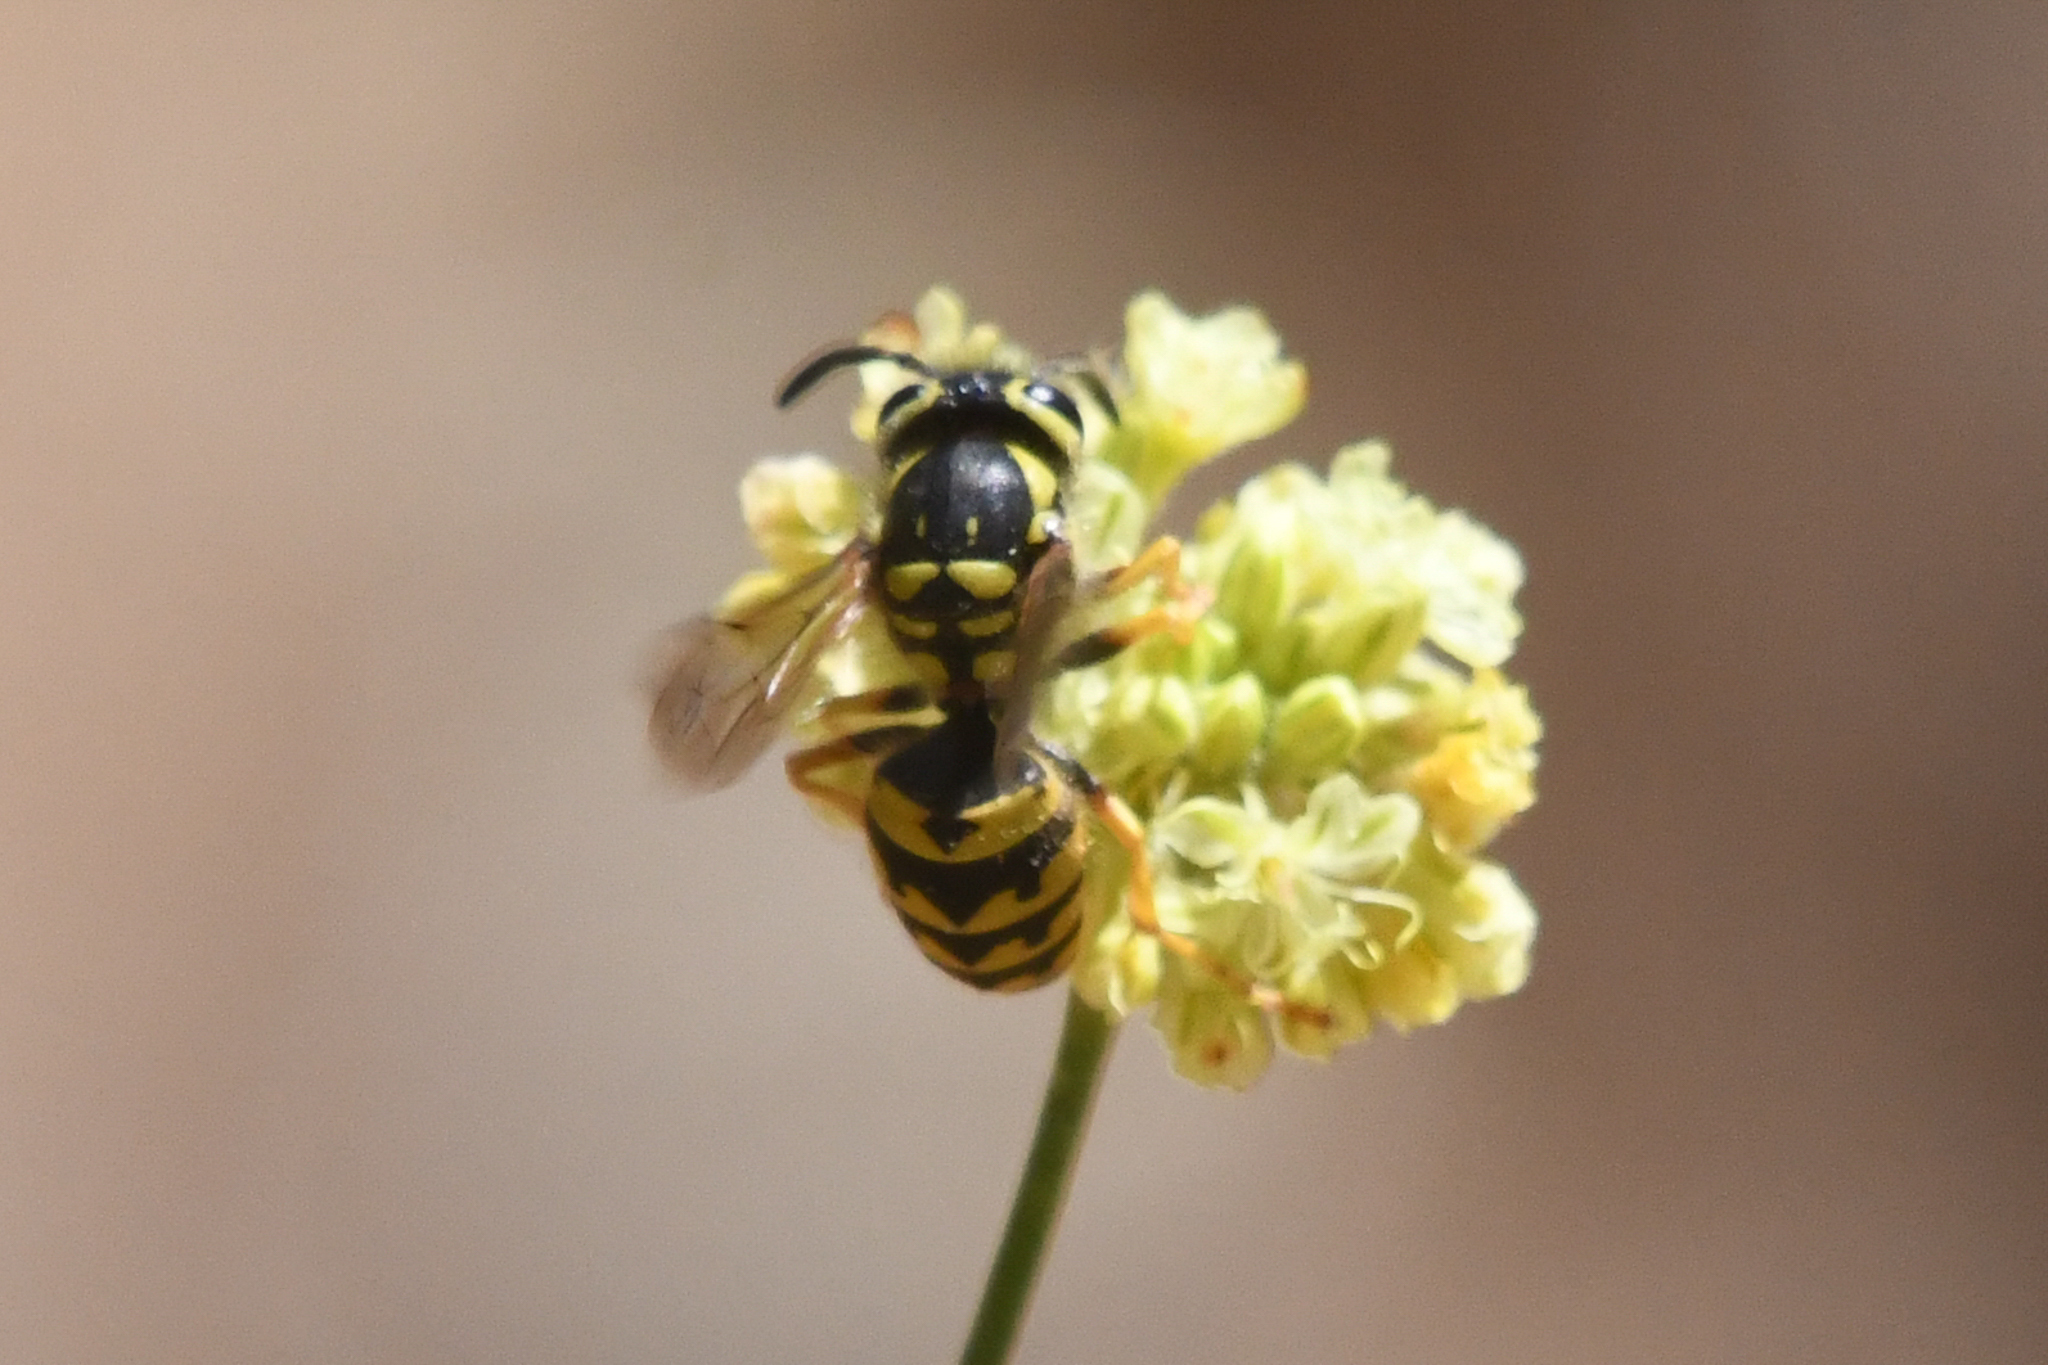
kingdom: Animalia
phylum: Arthropoda
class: Insecta
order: Hymenoptera
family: Vespidae
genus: Vespula
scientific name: Vespula pensylvanica
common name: Western yellowjacket
